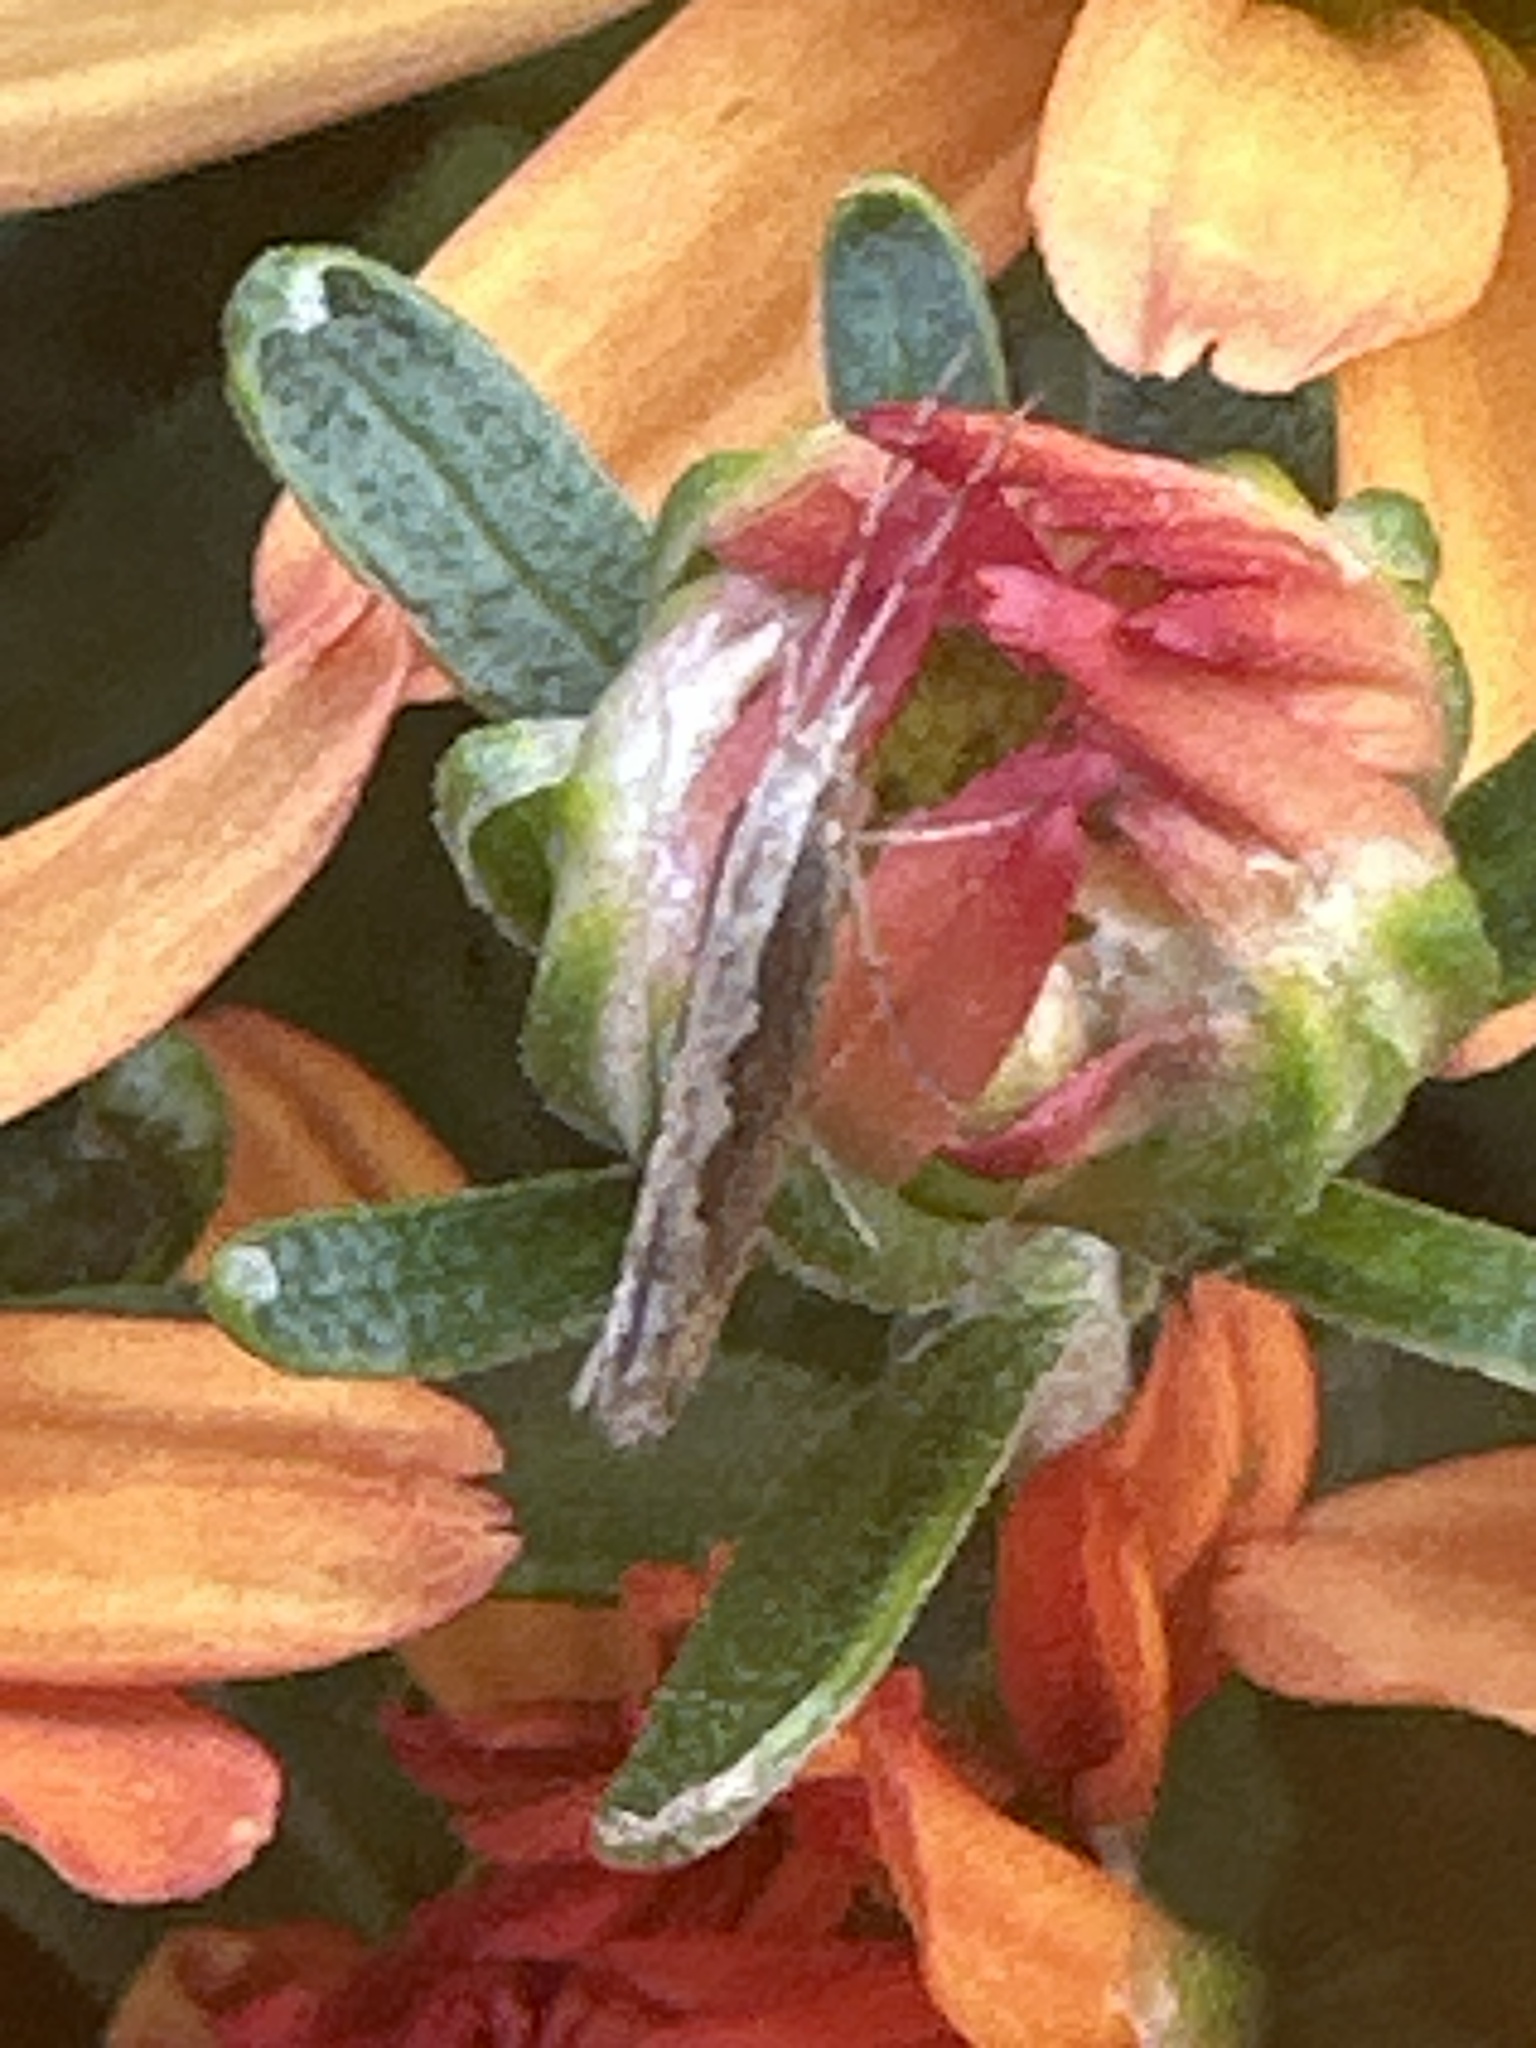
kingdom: Animalia
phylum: Arthropoda
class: Insecta
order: Lepidoptera
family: Plutellidae
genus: Plutella
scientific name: Plutella xylostella
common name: Diamond-back moth
